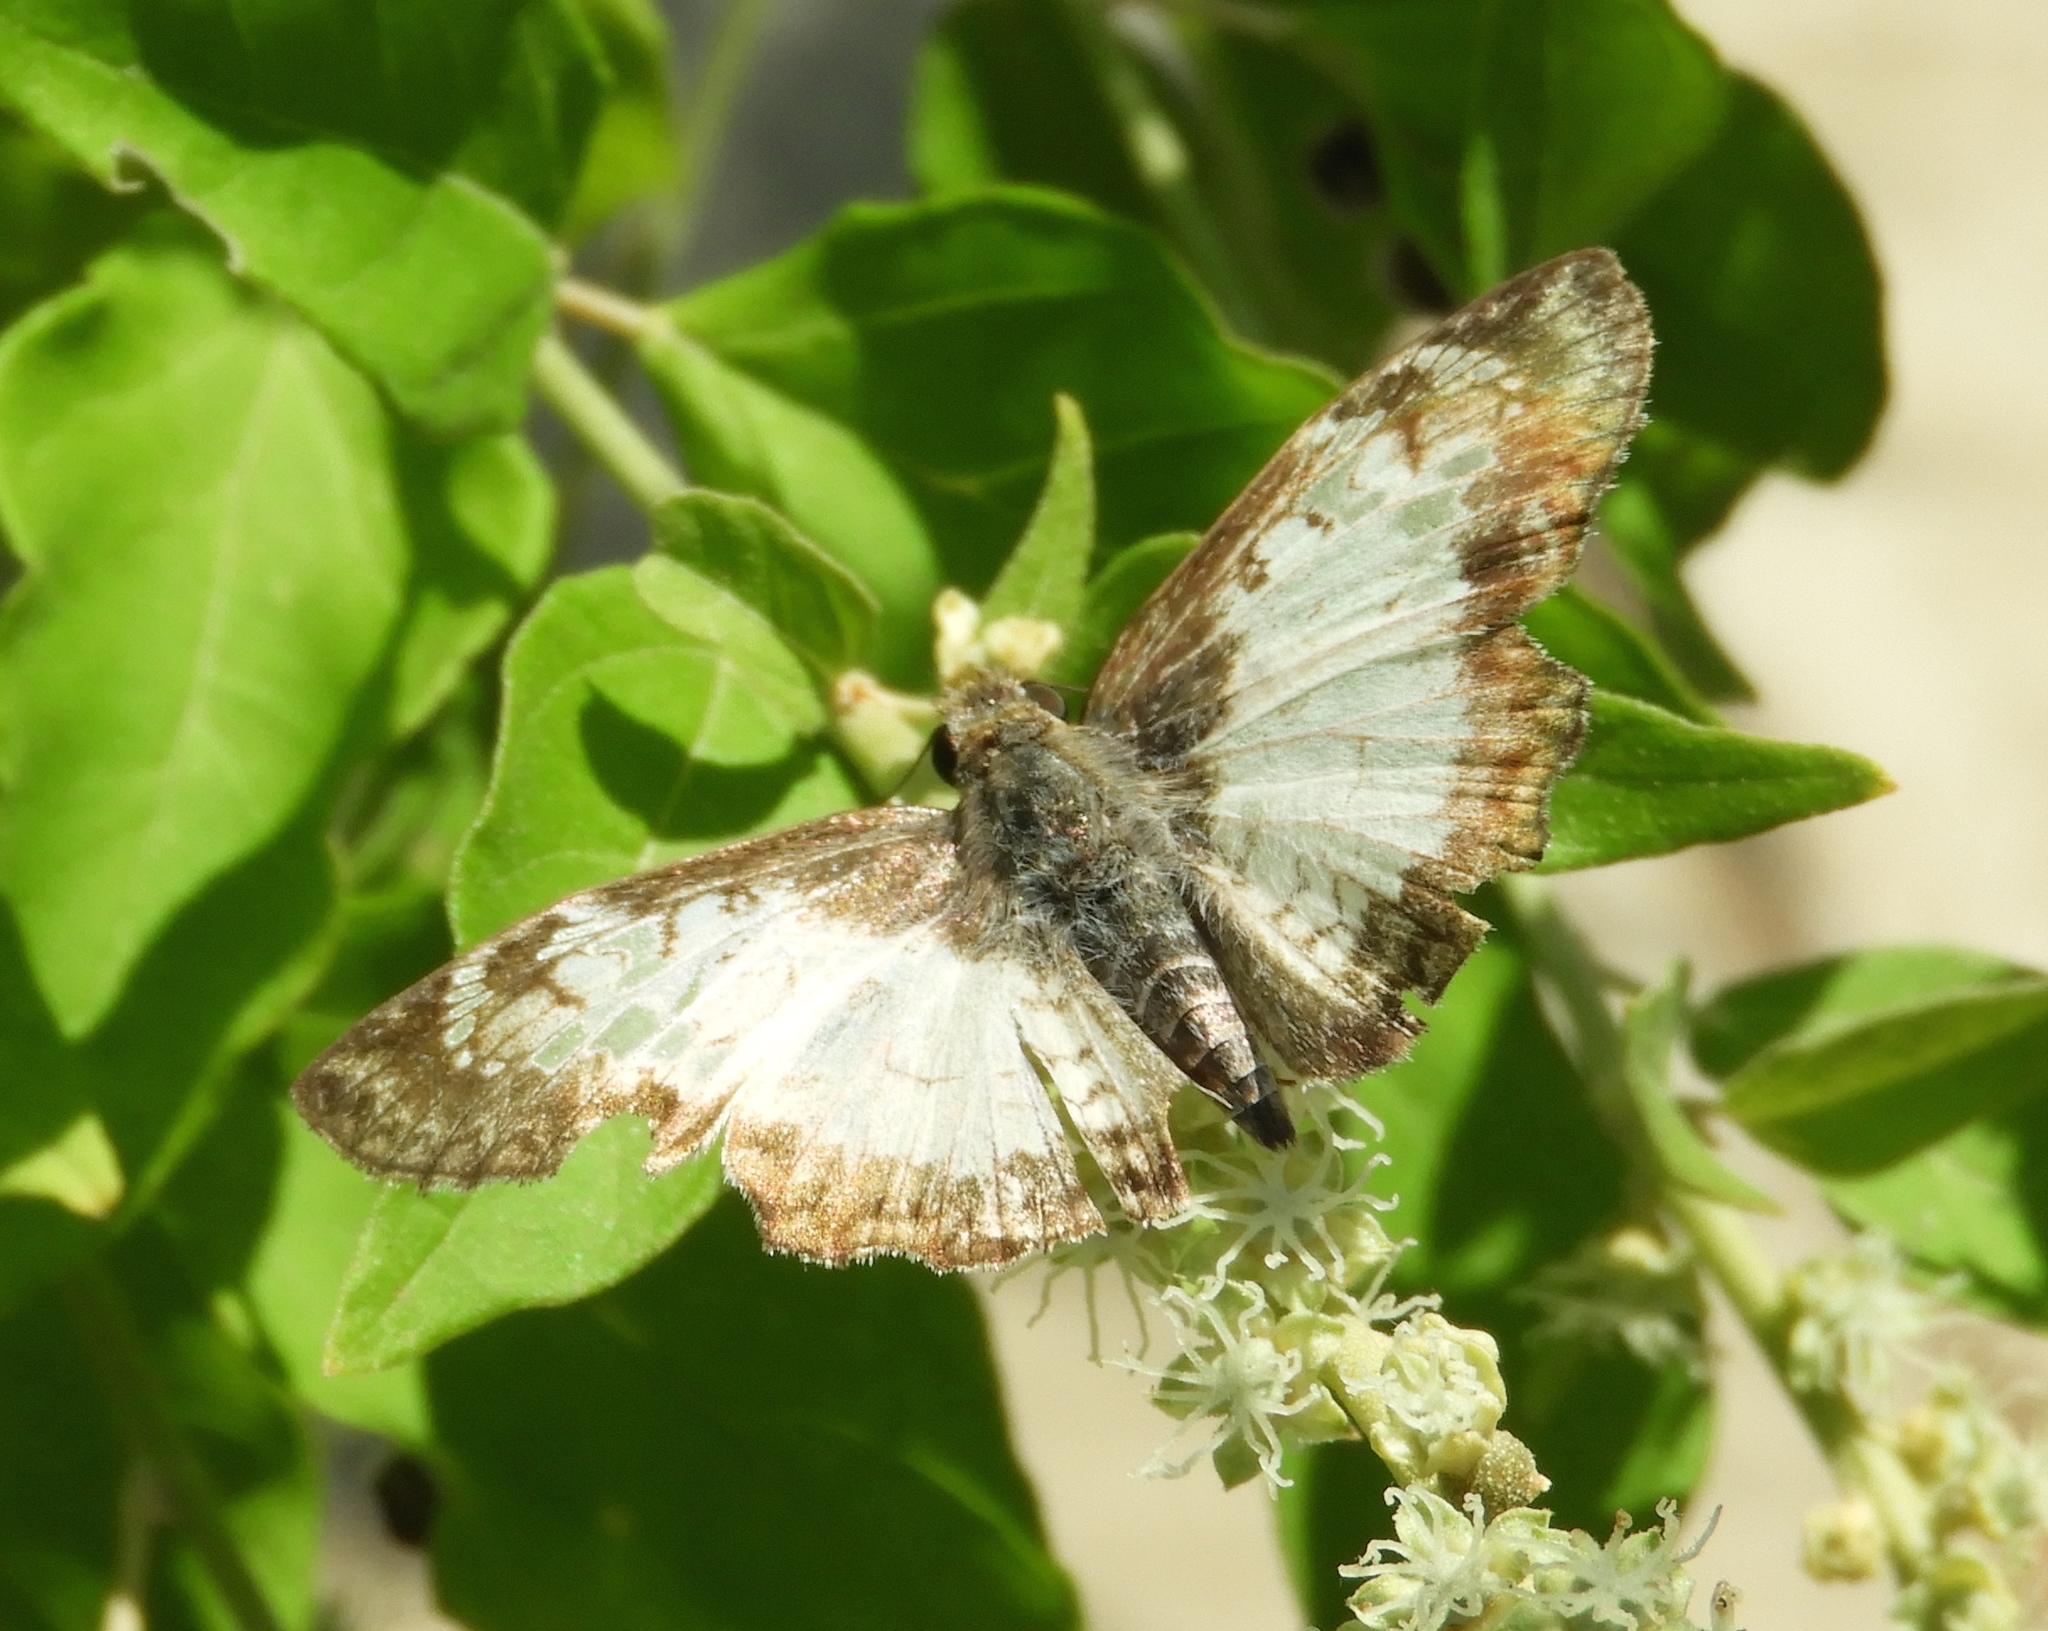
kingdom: Animalia
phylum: Arthropoda
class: Insecta
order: Lepidoptera
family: Hesperiidae
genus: Heliopetes
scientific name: Heliopetes laviana
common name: Laviana white-skipper
